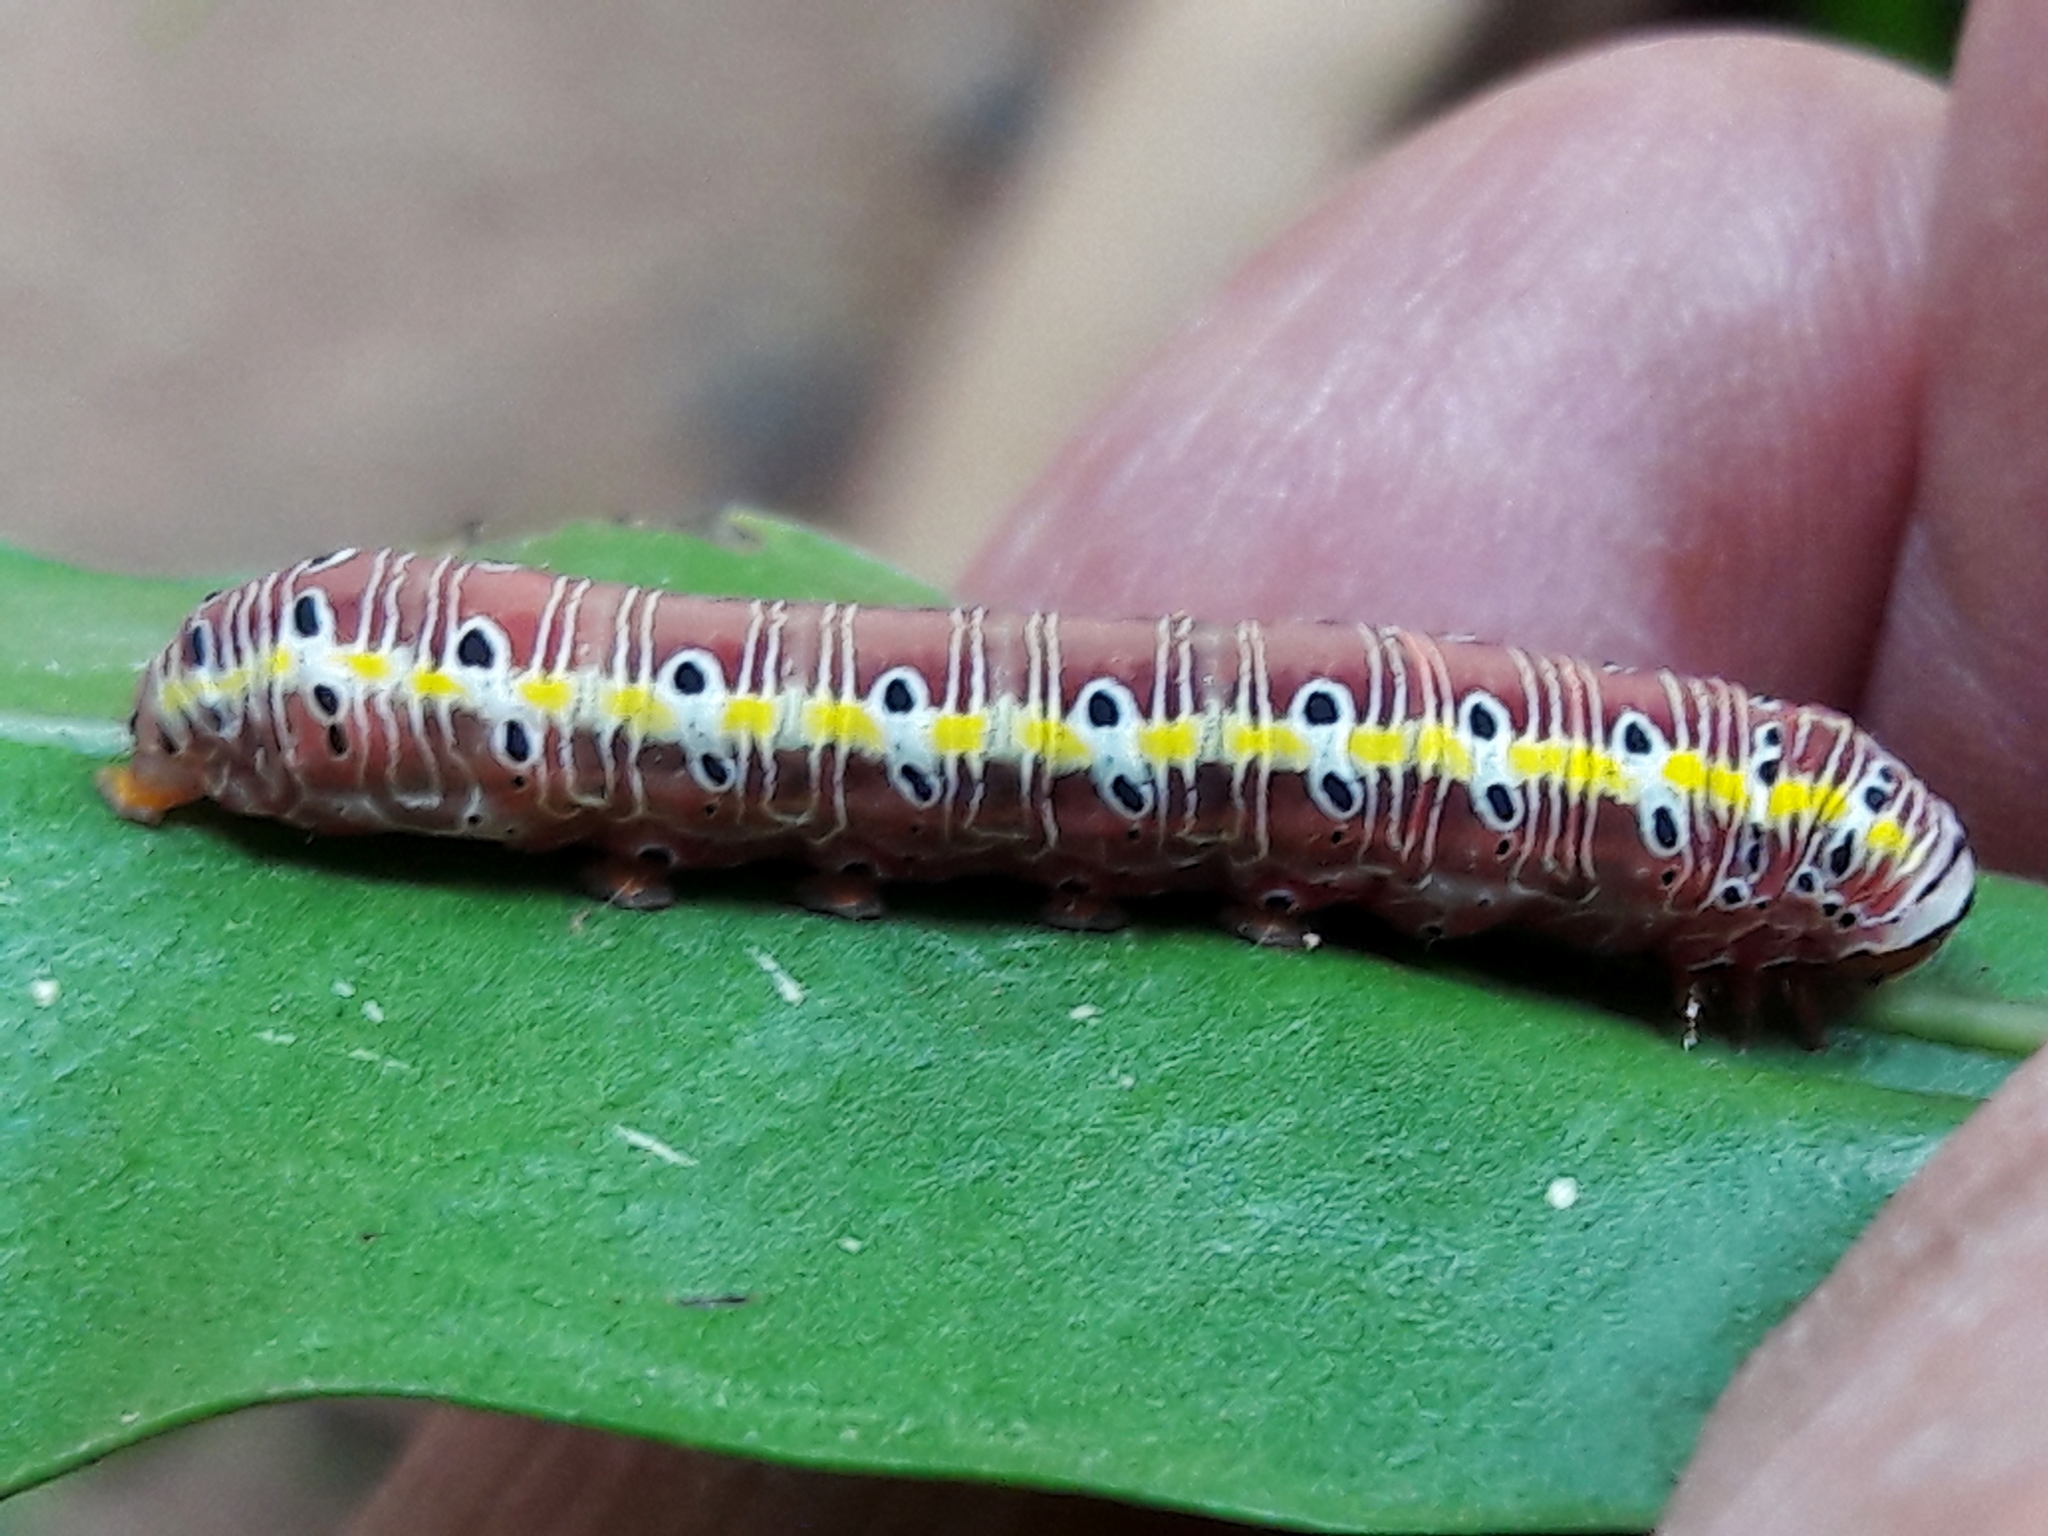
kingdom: Animalia
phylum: Arthropoda
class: Insecta
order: Lepidoptera
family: Noctuidae
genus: Argyrosticta
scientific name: Argyrosticta decumana
